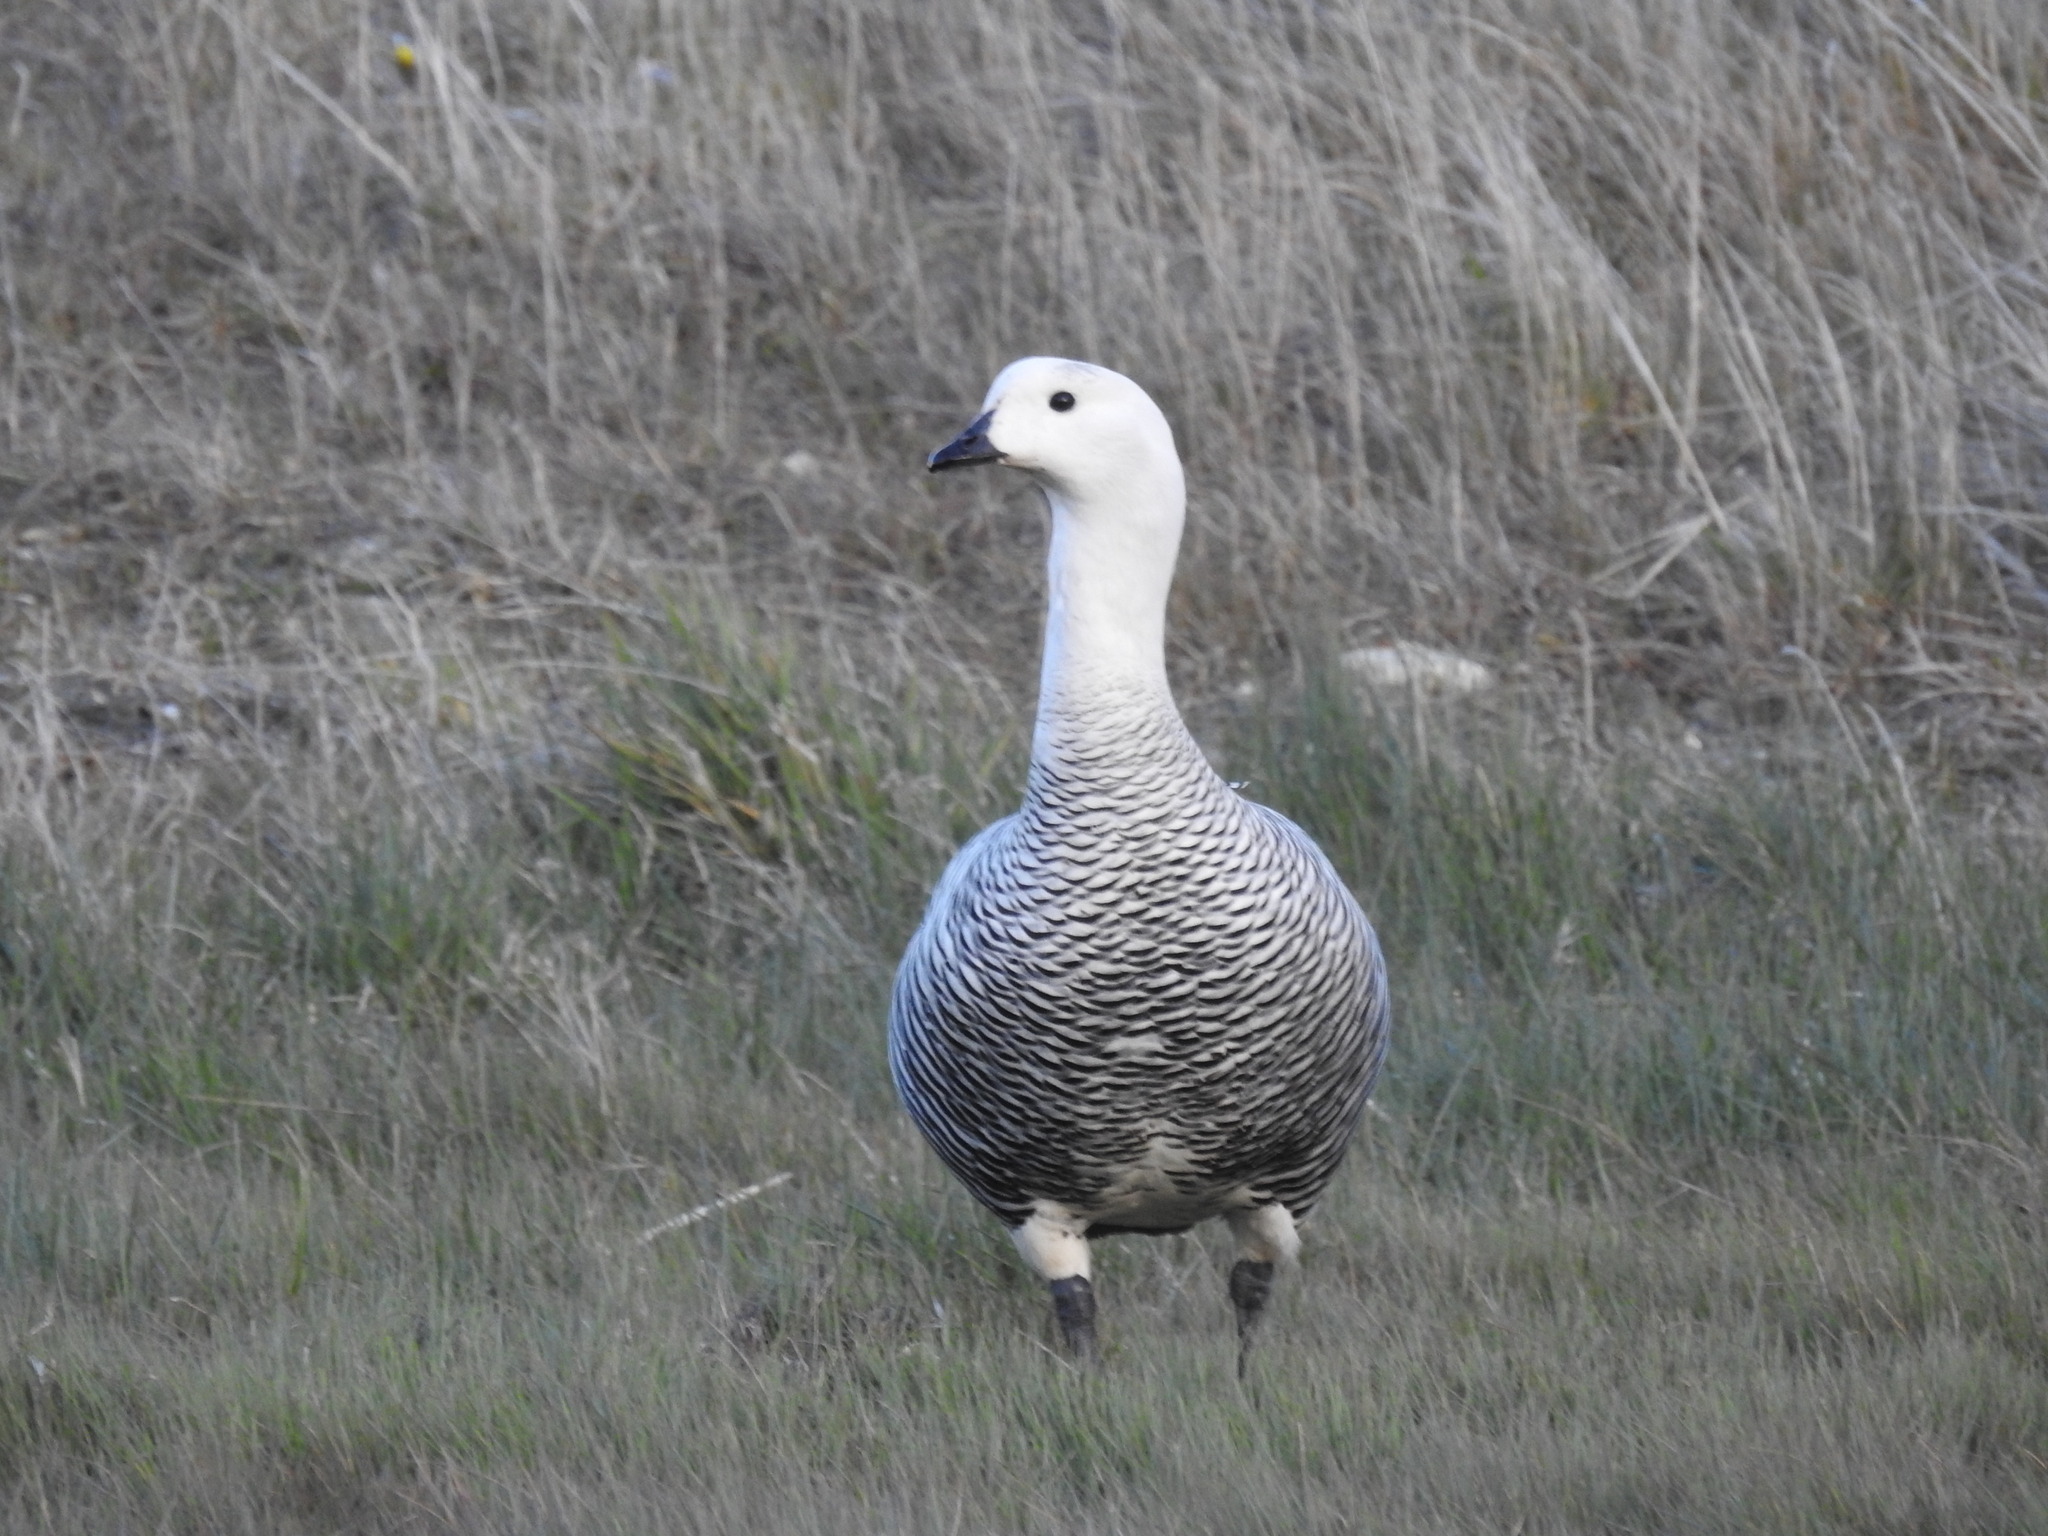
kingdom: Animalia
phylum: Chordata
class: Aves
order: Anseriformes
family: Anatidae
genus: Chloephaga
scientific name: Chloephaga picta
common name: Upland goose
